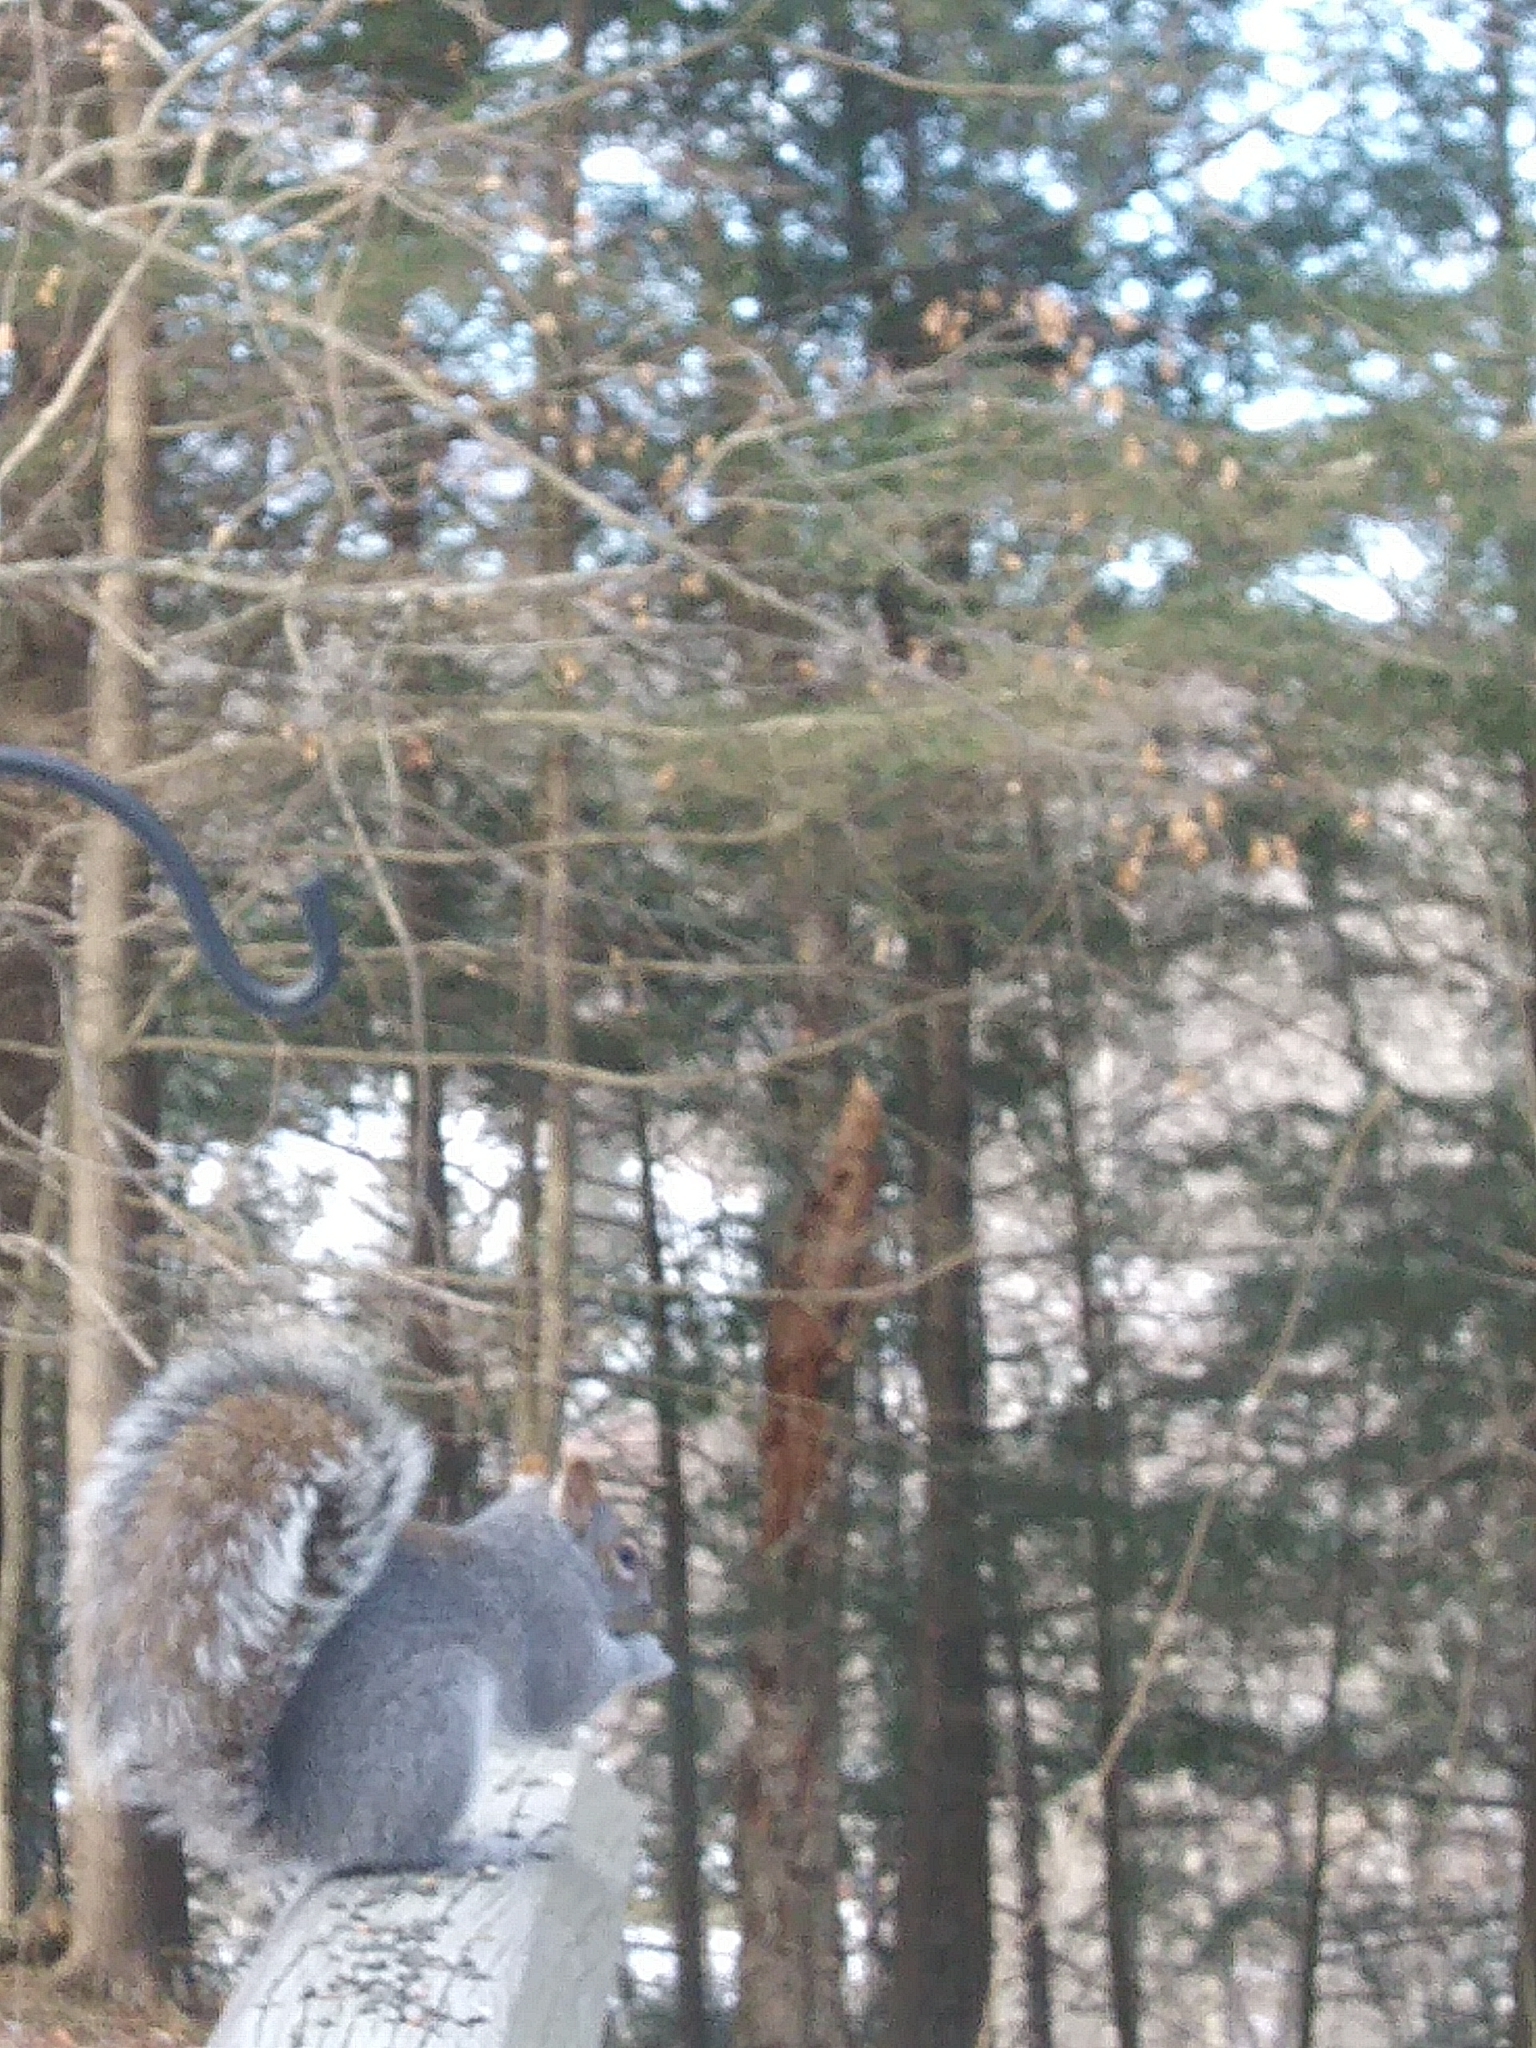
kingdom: Animalia
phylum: Chordata
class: Mammalia
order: Rodentia
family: Sciuridae
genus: Sciurus
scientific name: Sciurus carolinensis
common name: Eastern gray squirrel
